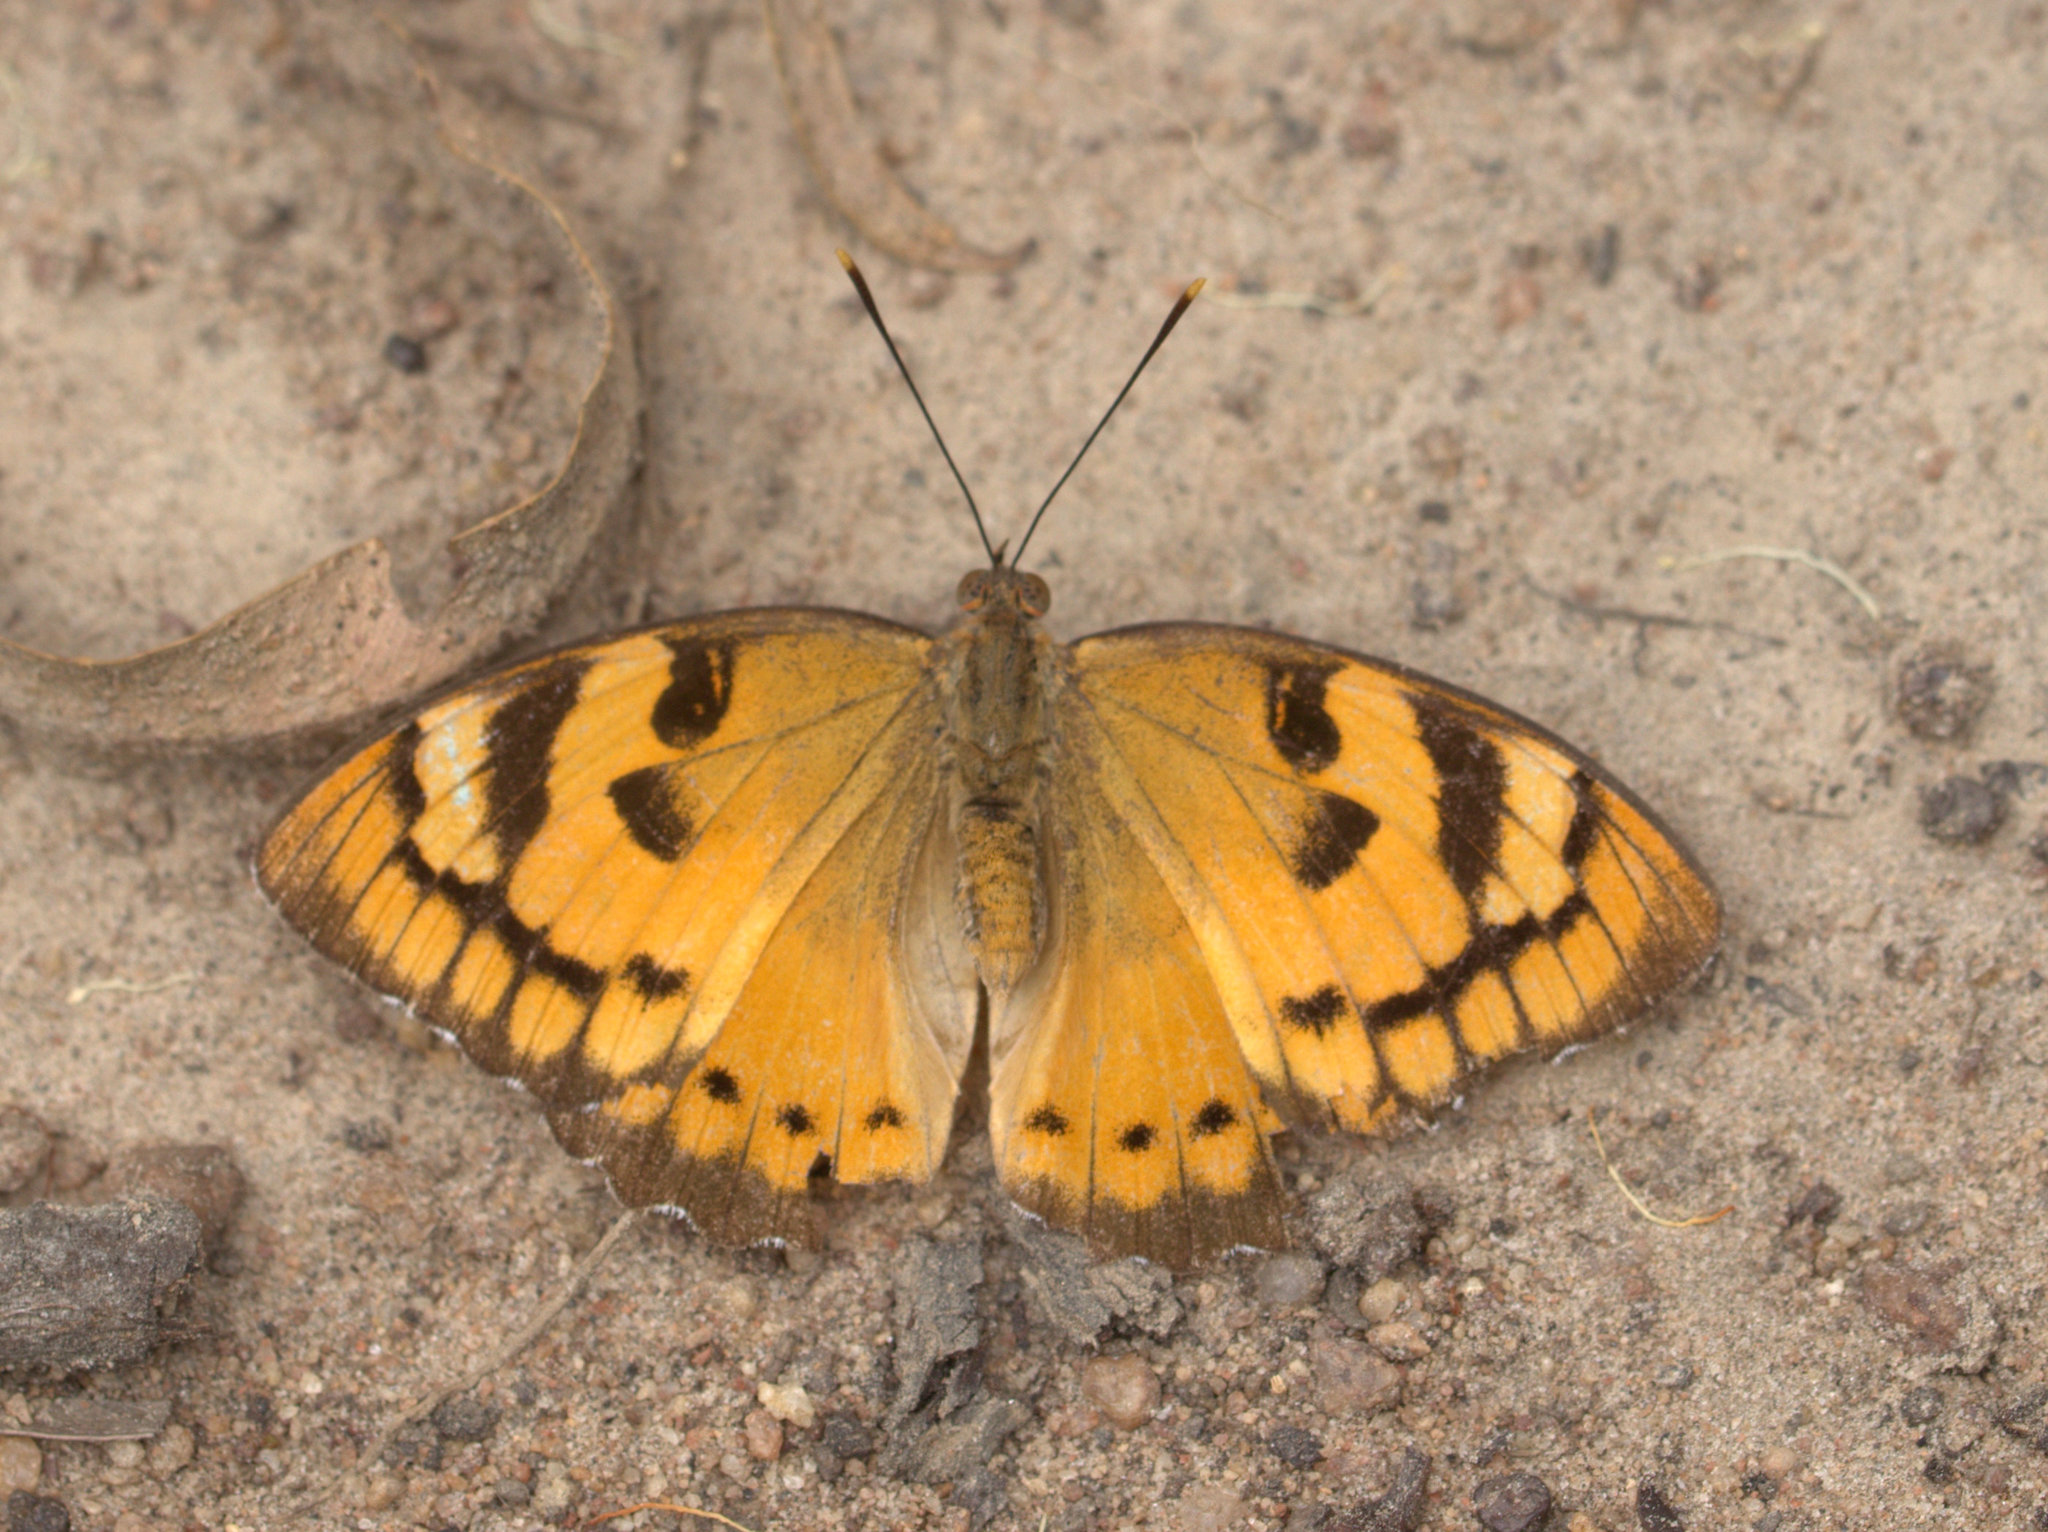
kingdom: Animalia
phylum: Arthropoda
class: Insecta
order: Lepidoptera
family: Nymphalidae
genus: Euthalia
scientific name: Euthalia nais
